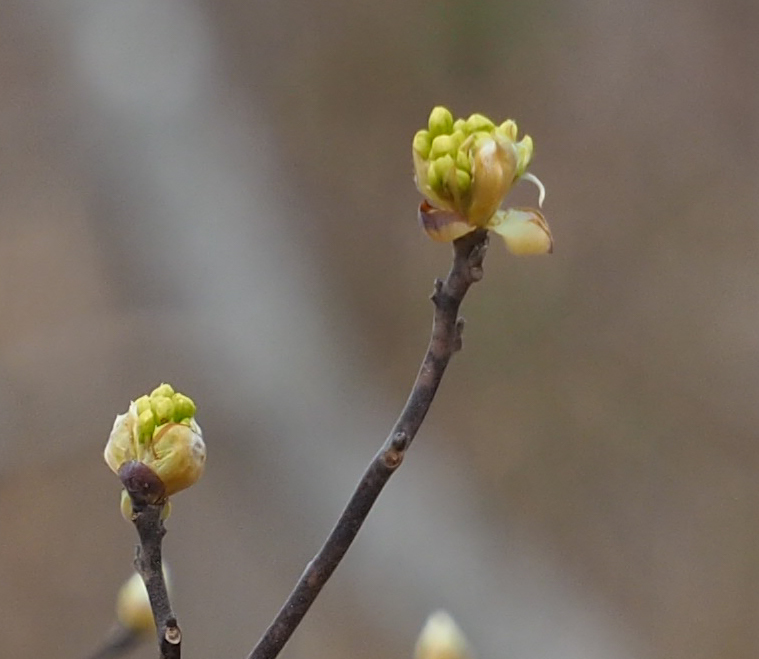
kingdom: Plantae
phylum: Tracheophyta
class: Magnoliopsida
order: Cornales
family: Cornaceae
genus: Cornus
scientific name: Cornus florida
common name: Flowering dogwood
